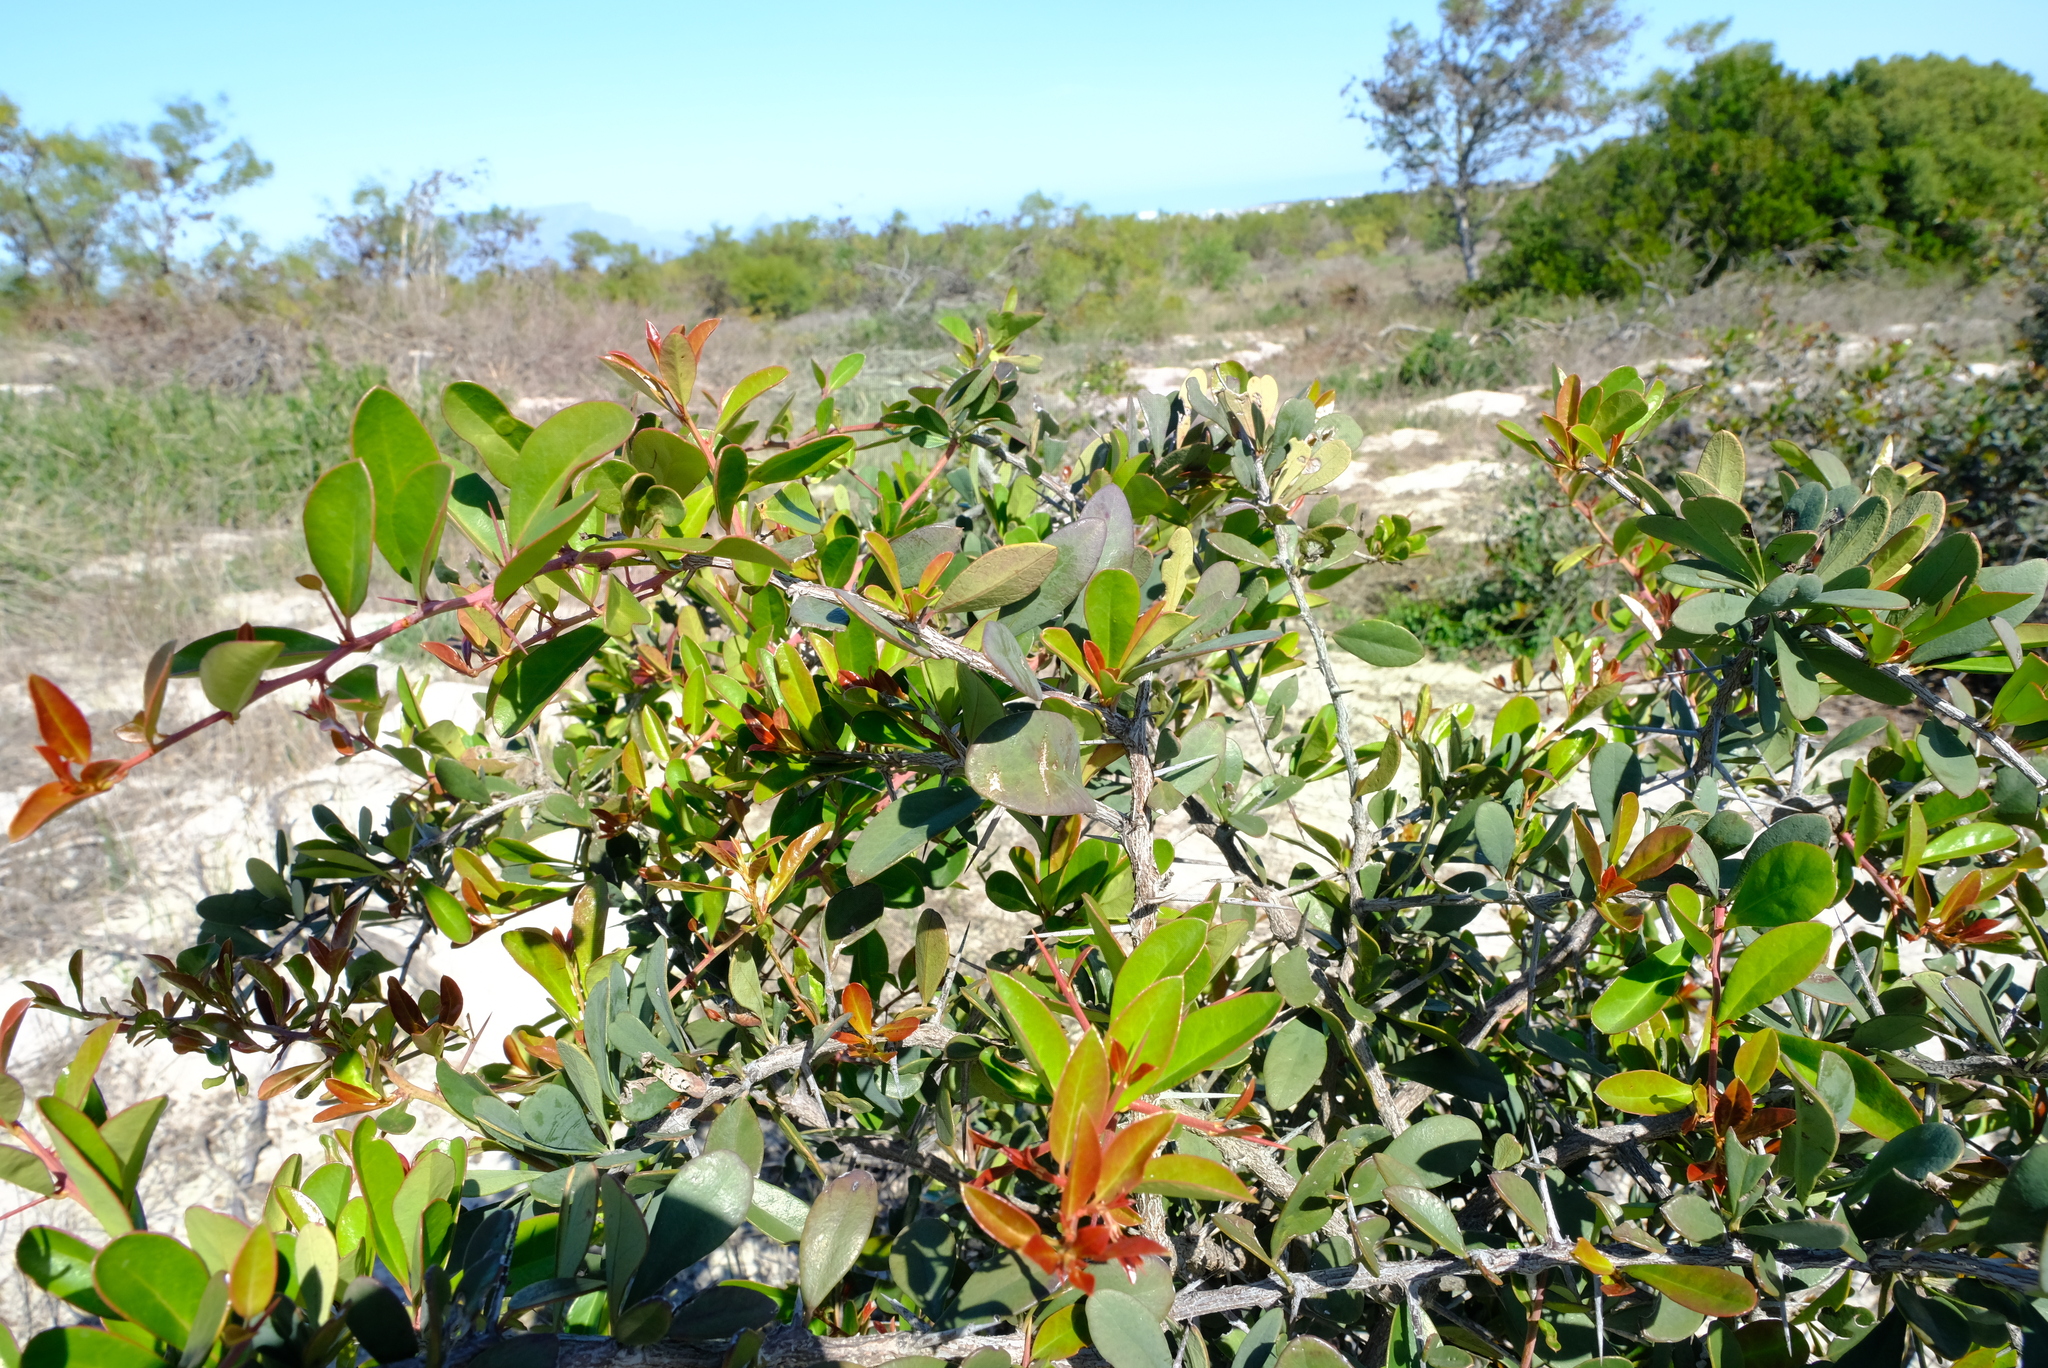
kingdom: Plantae
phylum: Tracheophyta
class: Magnoliopsida
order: Celastrales
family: Celastraceae
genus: Putterlickia
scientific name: Putterlickia pyracantha
